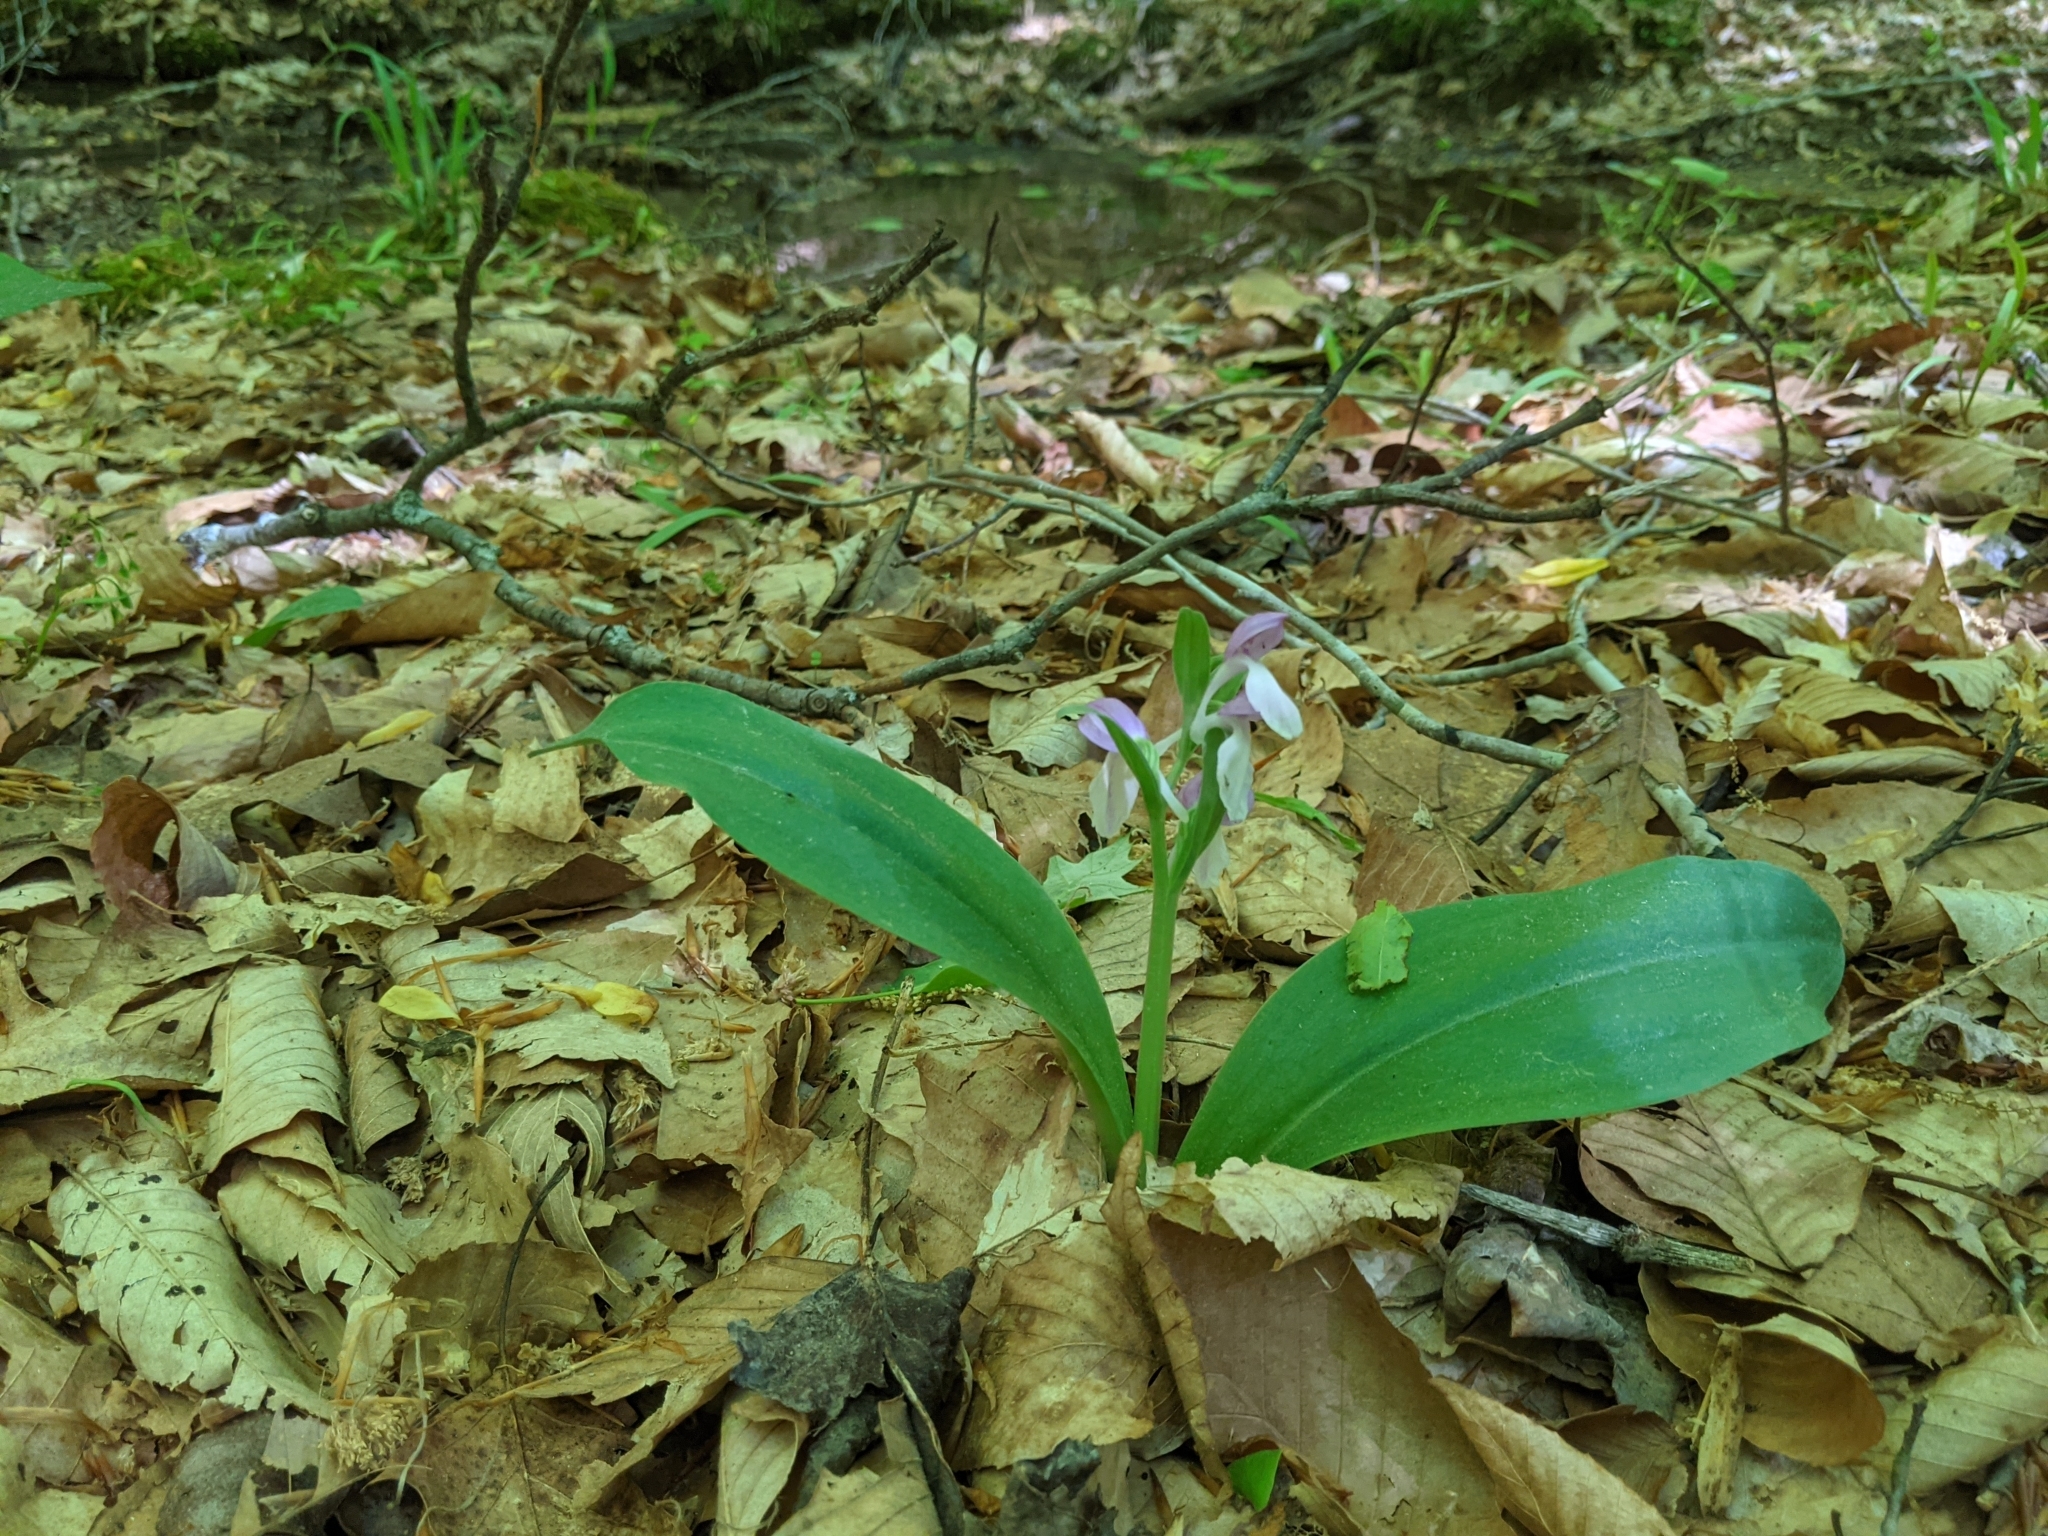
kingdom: Plantae
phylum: Tracheophyta
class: Liliopsida
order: Asparagales
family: Orchidaceae
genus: Galearis
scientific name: Galearis spectabilis
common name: Purple-hooded orchis
